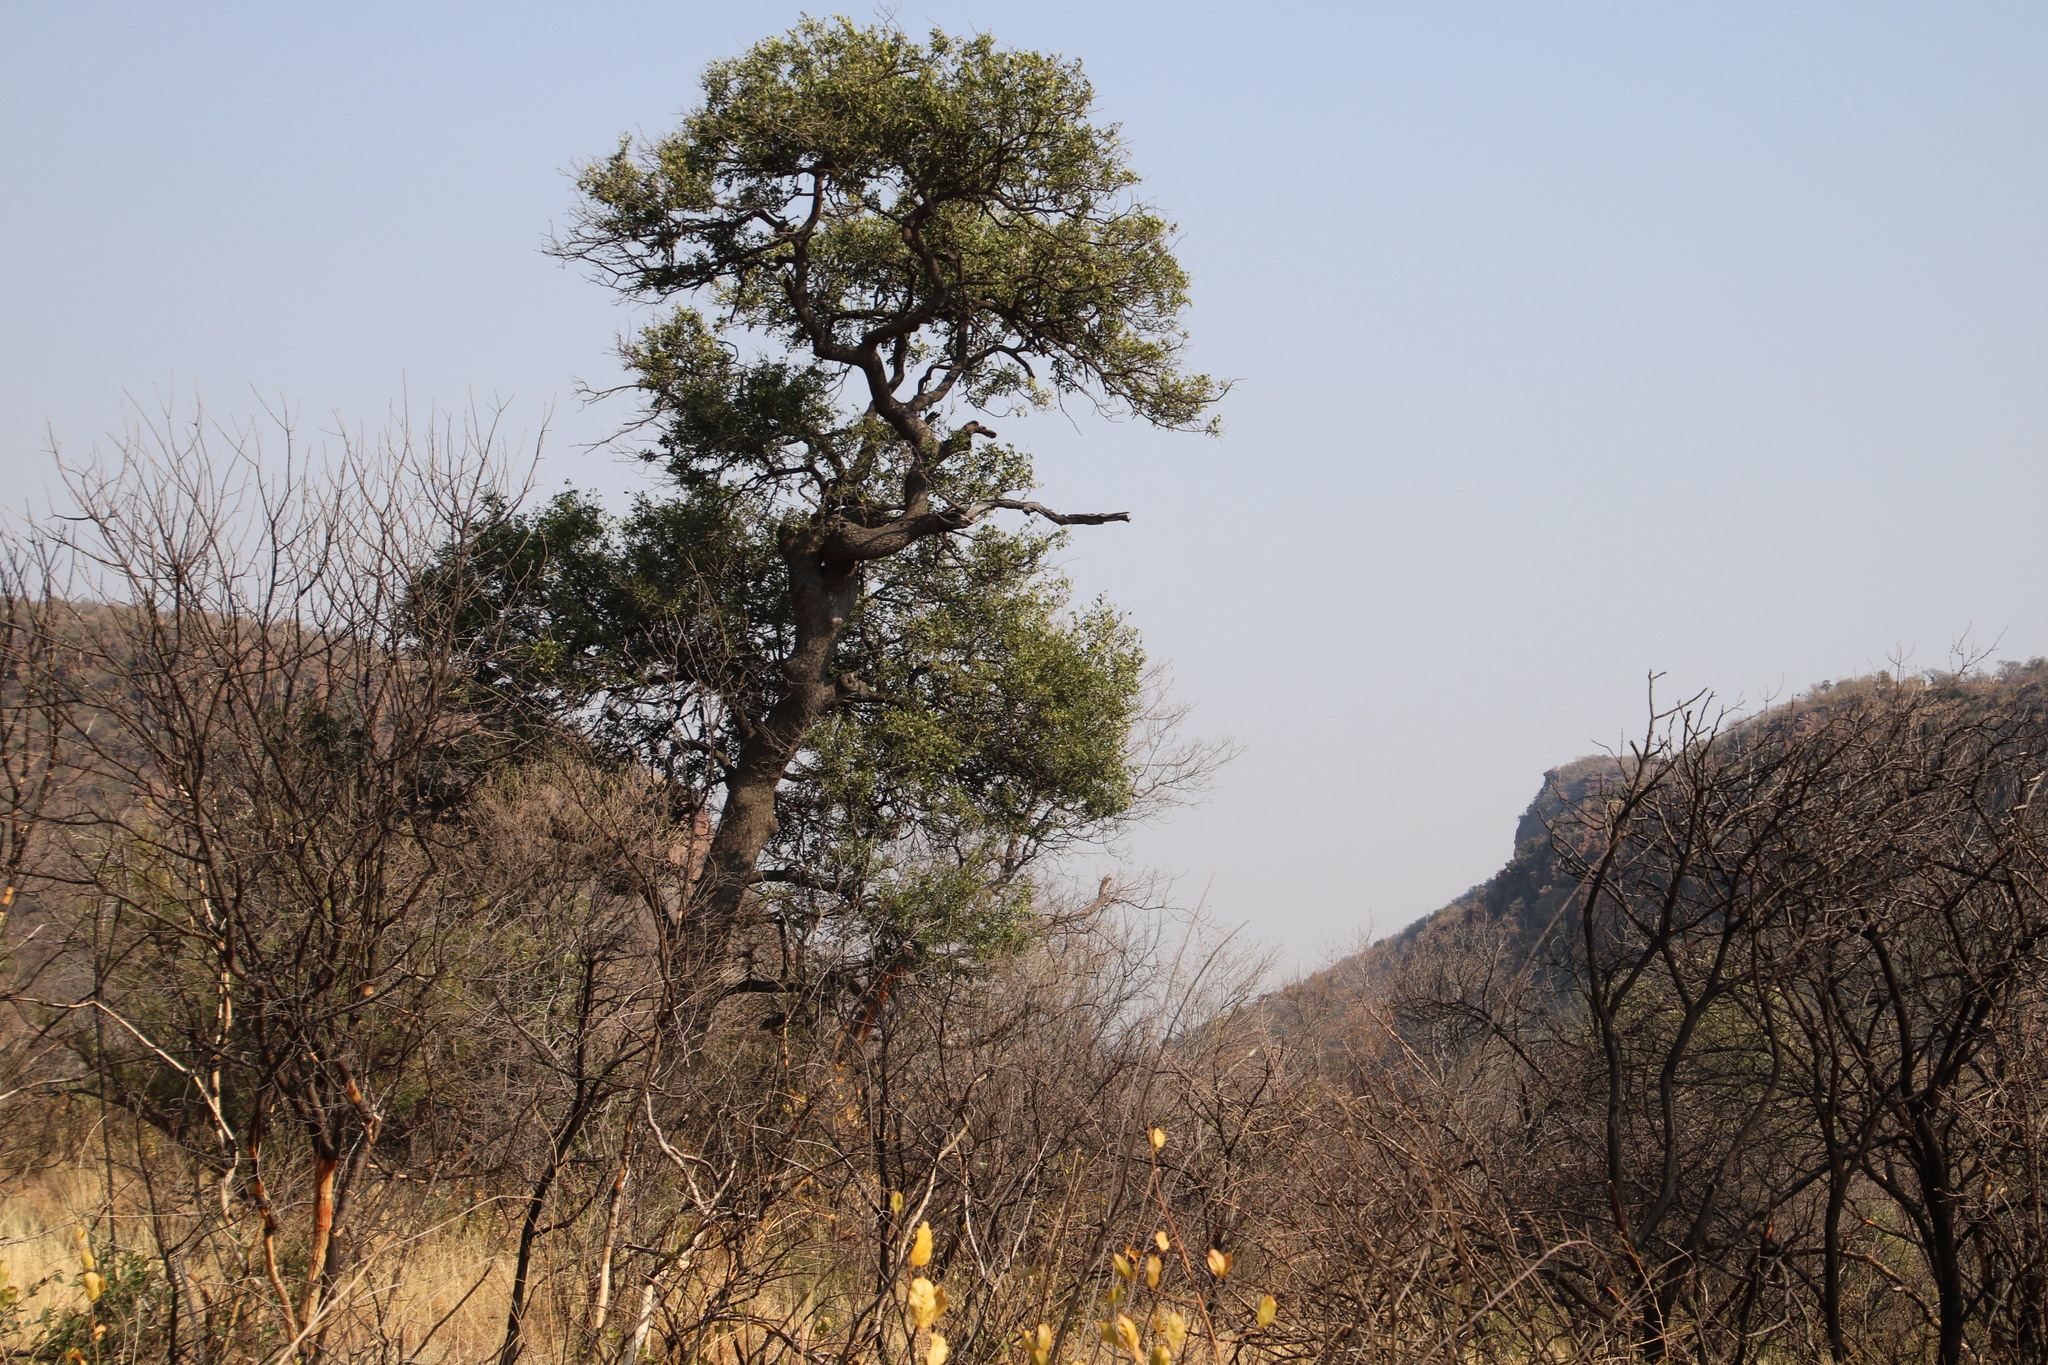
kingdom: Plantae
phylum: Tracheophyta
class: Magnoliopsida
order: Fabales
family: Fabaceae
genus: Schotia
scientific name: Schotia brachypetala
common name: Weeping boer-bean
